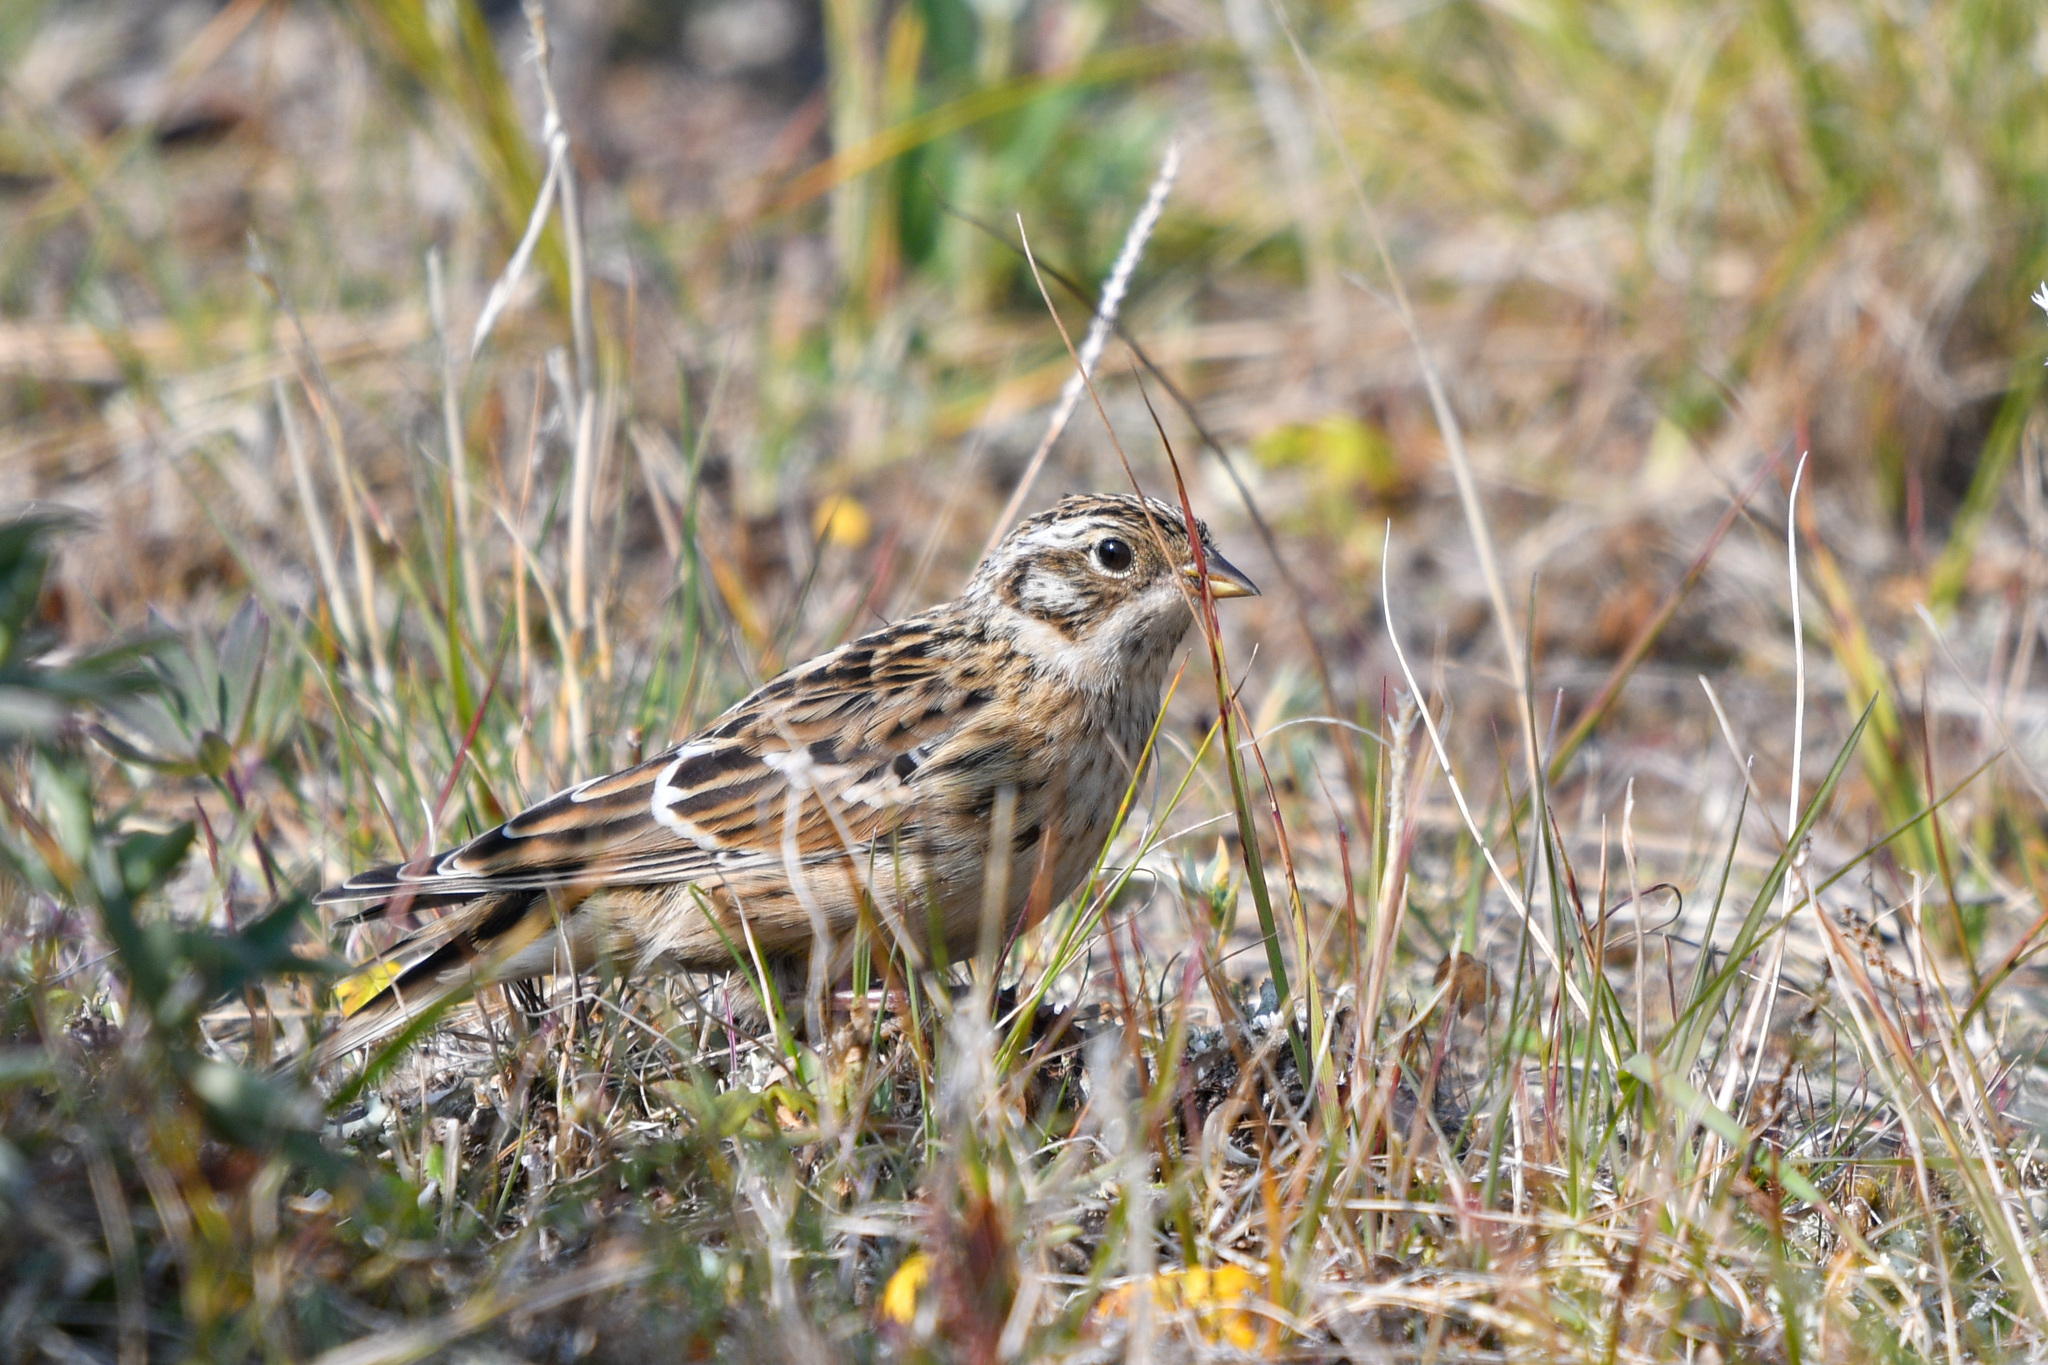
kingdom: Animalia
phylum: Chordata
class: Aves
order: Passeriformes
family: Calcariidae
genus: Calcarius
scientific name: Calcarius pictus
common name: Smith's longspur
